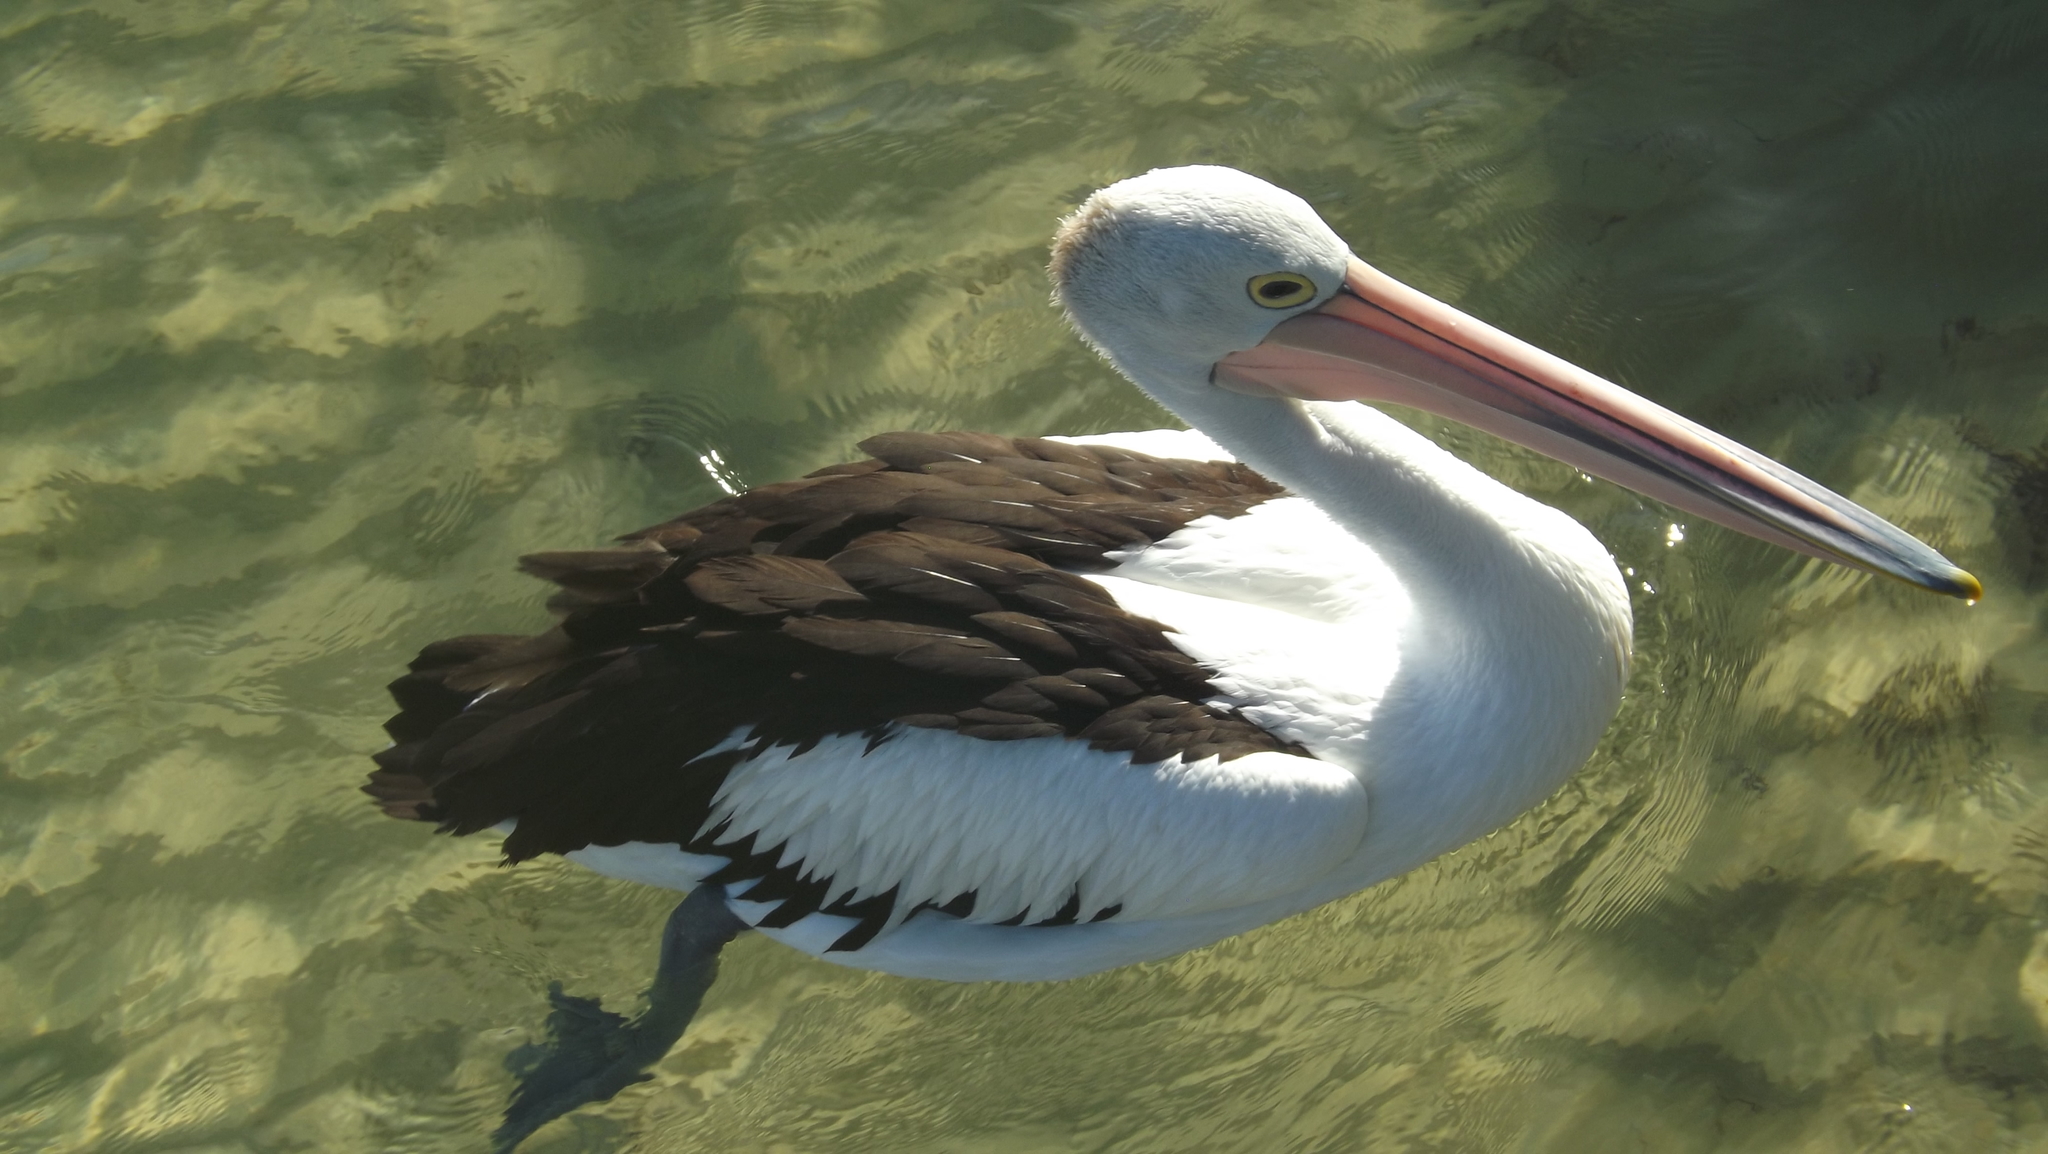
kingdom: Animalia
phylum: Chordata
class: Aves
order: Pelecaniformes
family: Pelecanidae
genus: Pelecanus
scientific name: Pelecanus conspicillatus
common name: Australian pelican
